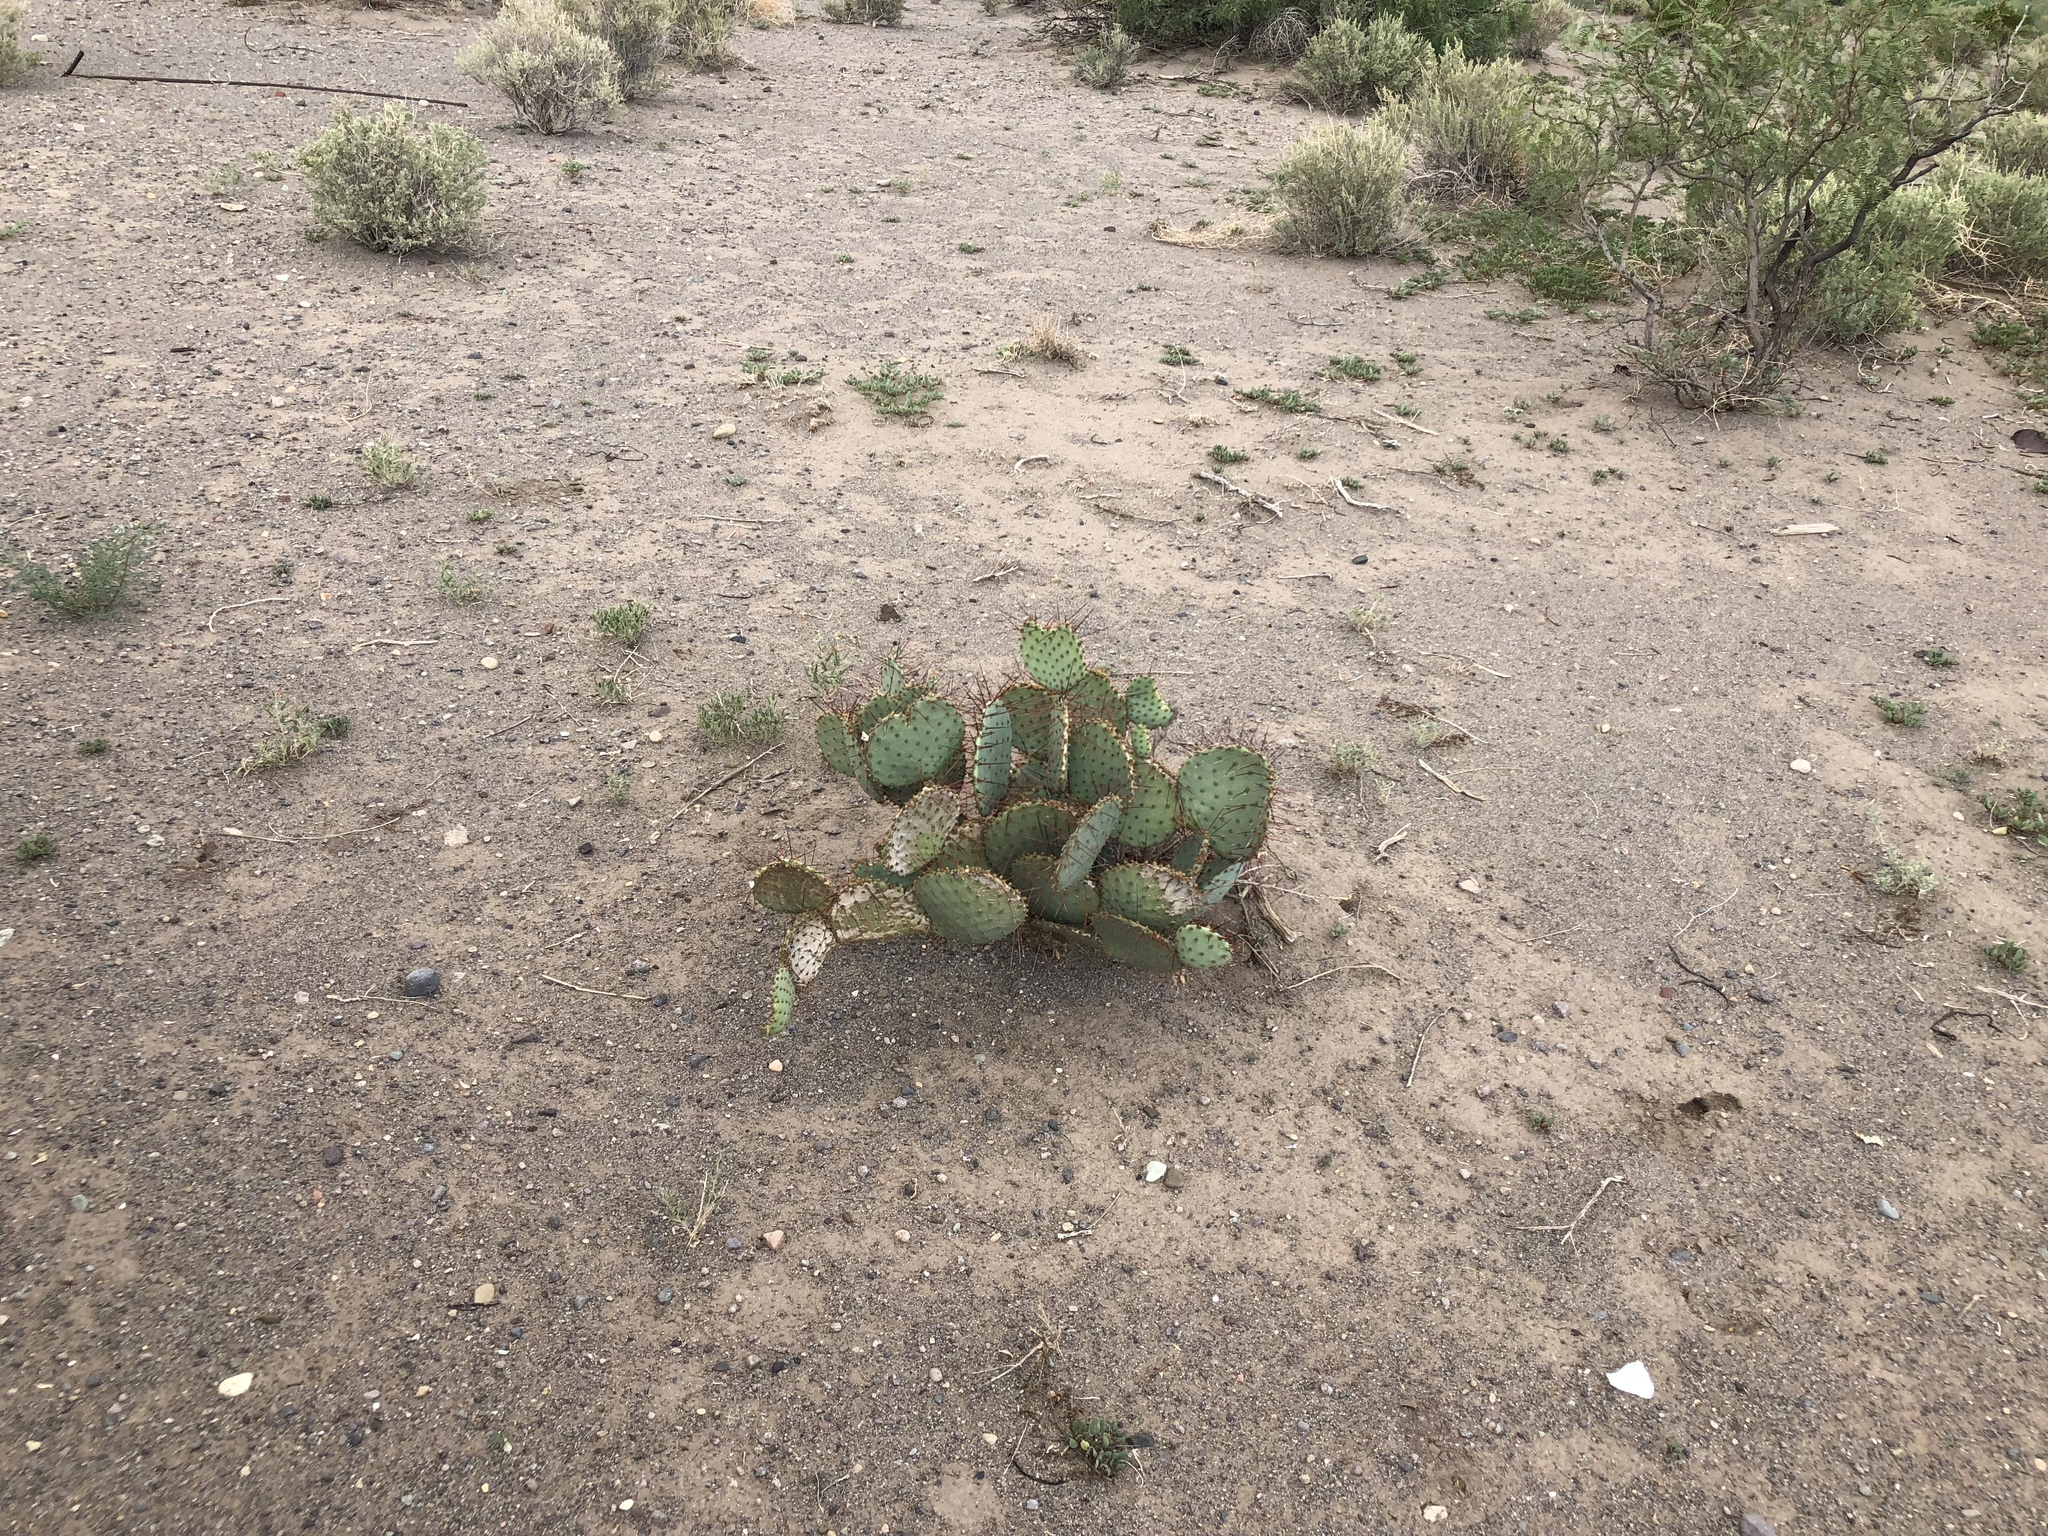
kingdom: Plantae
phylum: Tracheophyta
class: Magnoliopsida
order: Caryophyllales
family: Cactaceae
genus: Opuntia
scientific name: Opuntia macrocentra
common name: Purple prickly-pear
